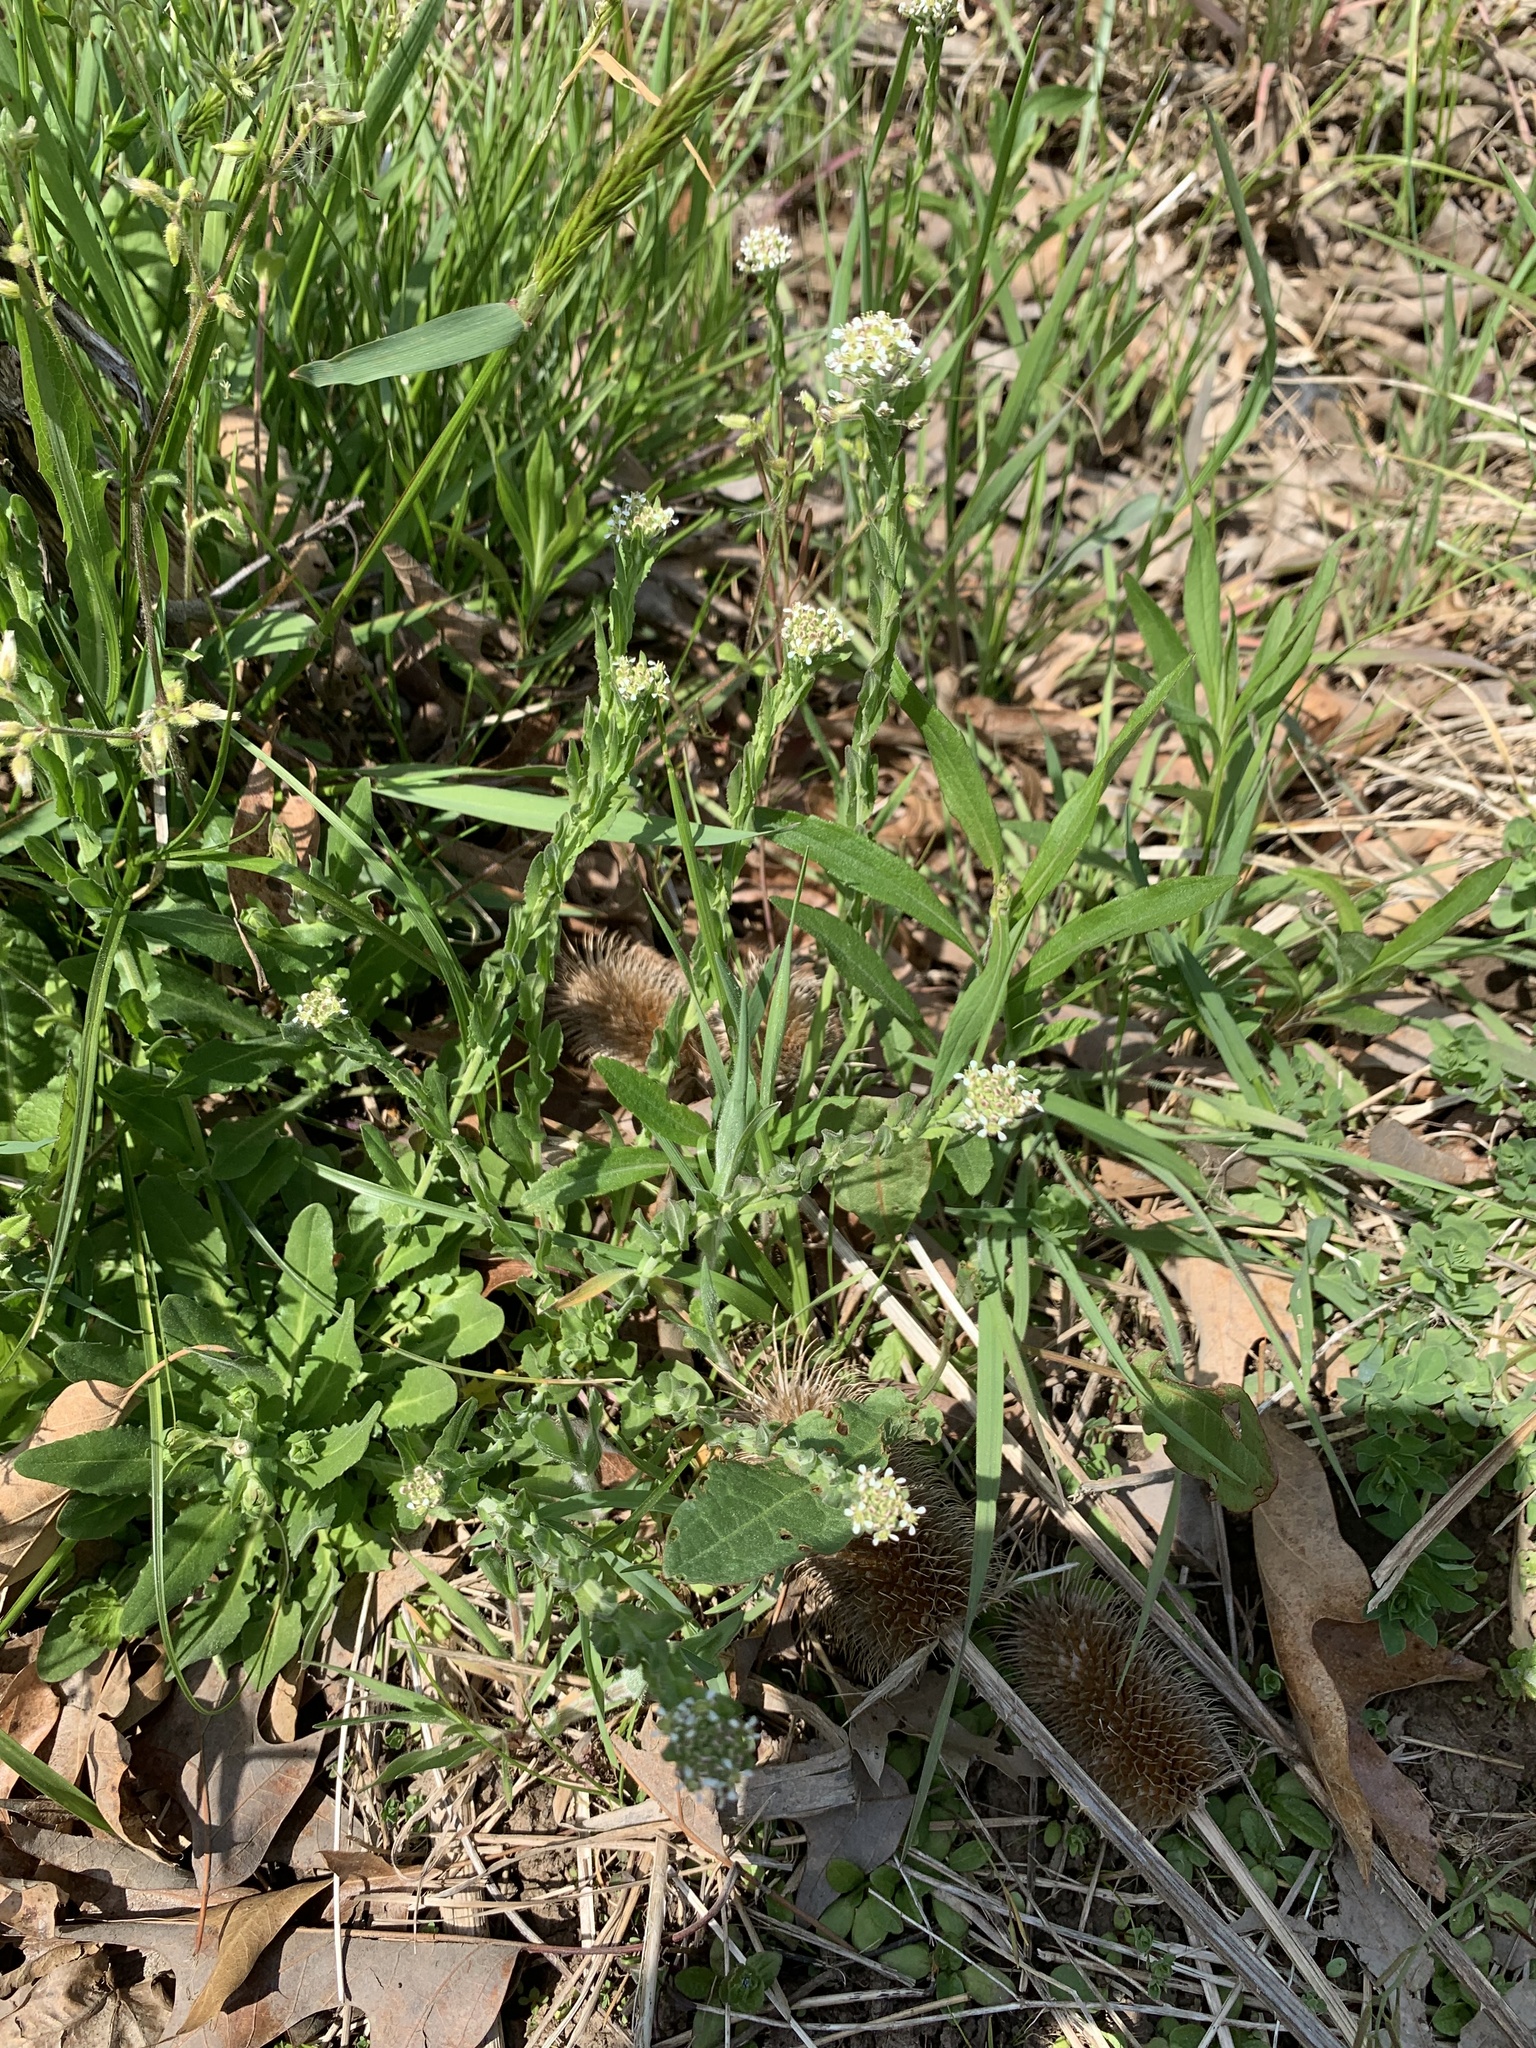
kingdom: Plantae
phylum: Tracheophyta
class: Magnoliopsida
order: Brassicales
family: Brassicaceae
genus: Lepidium
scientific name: Lepidium campestre
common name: Field pepperwort
